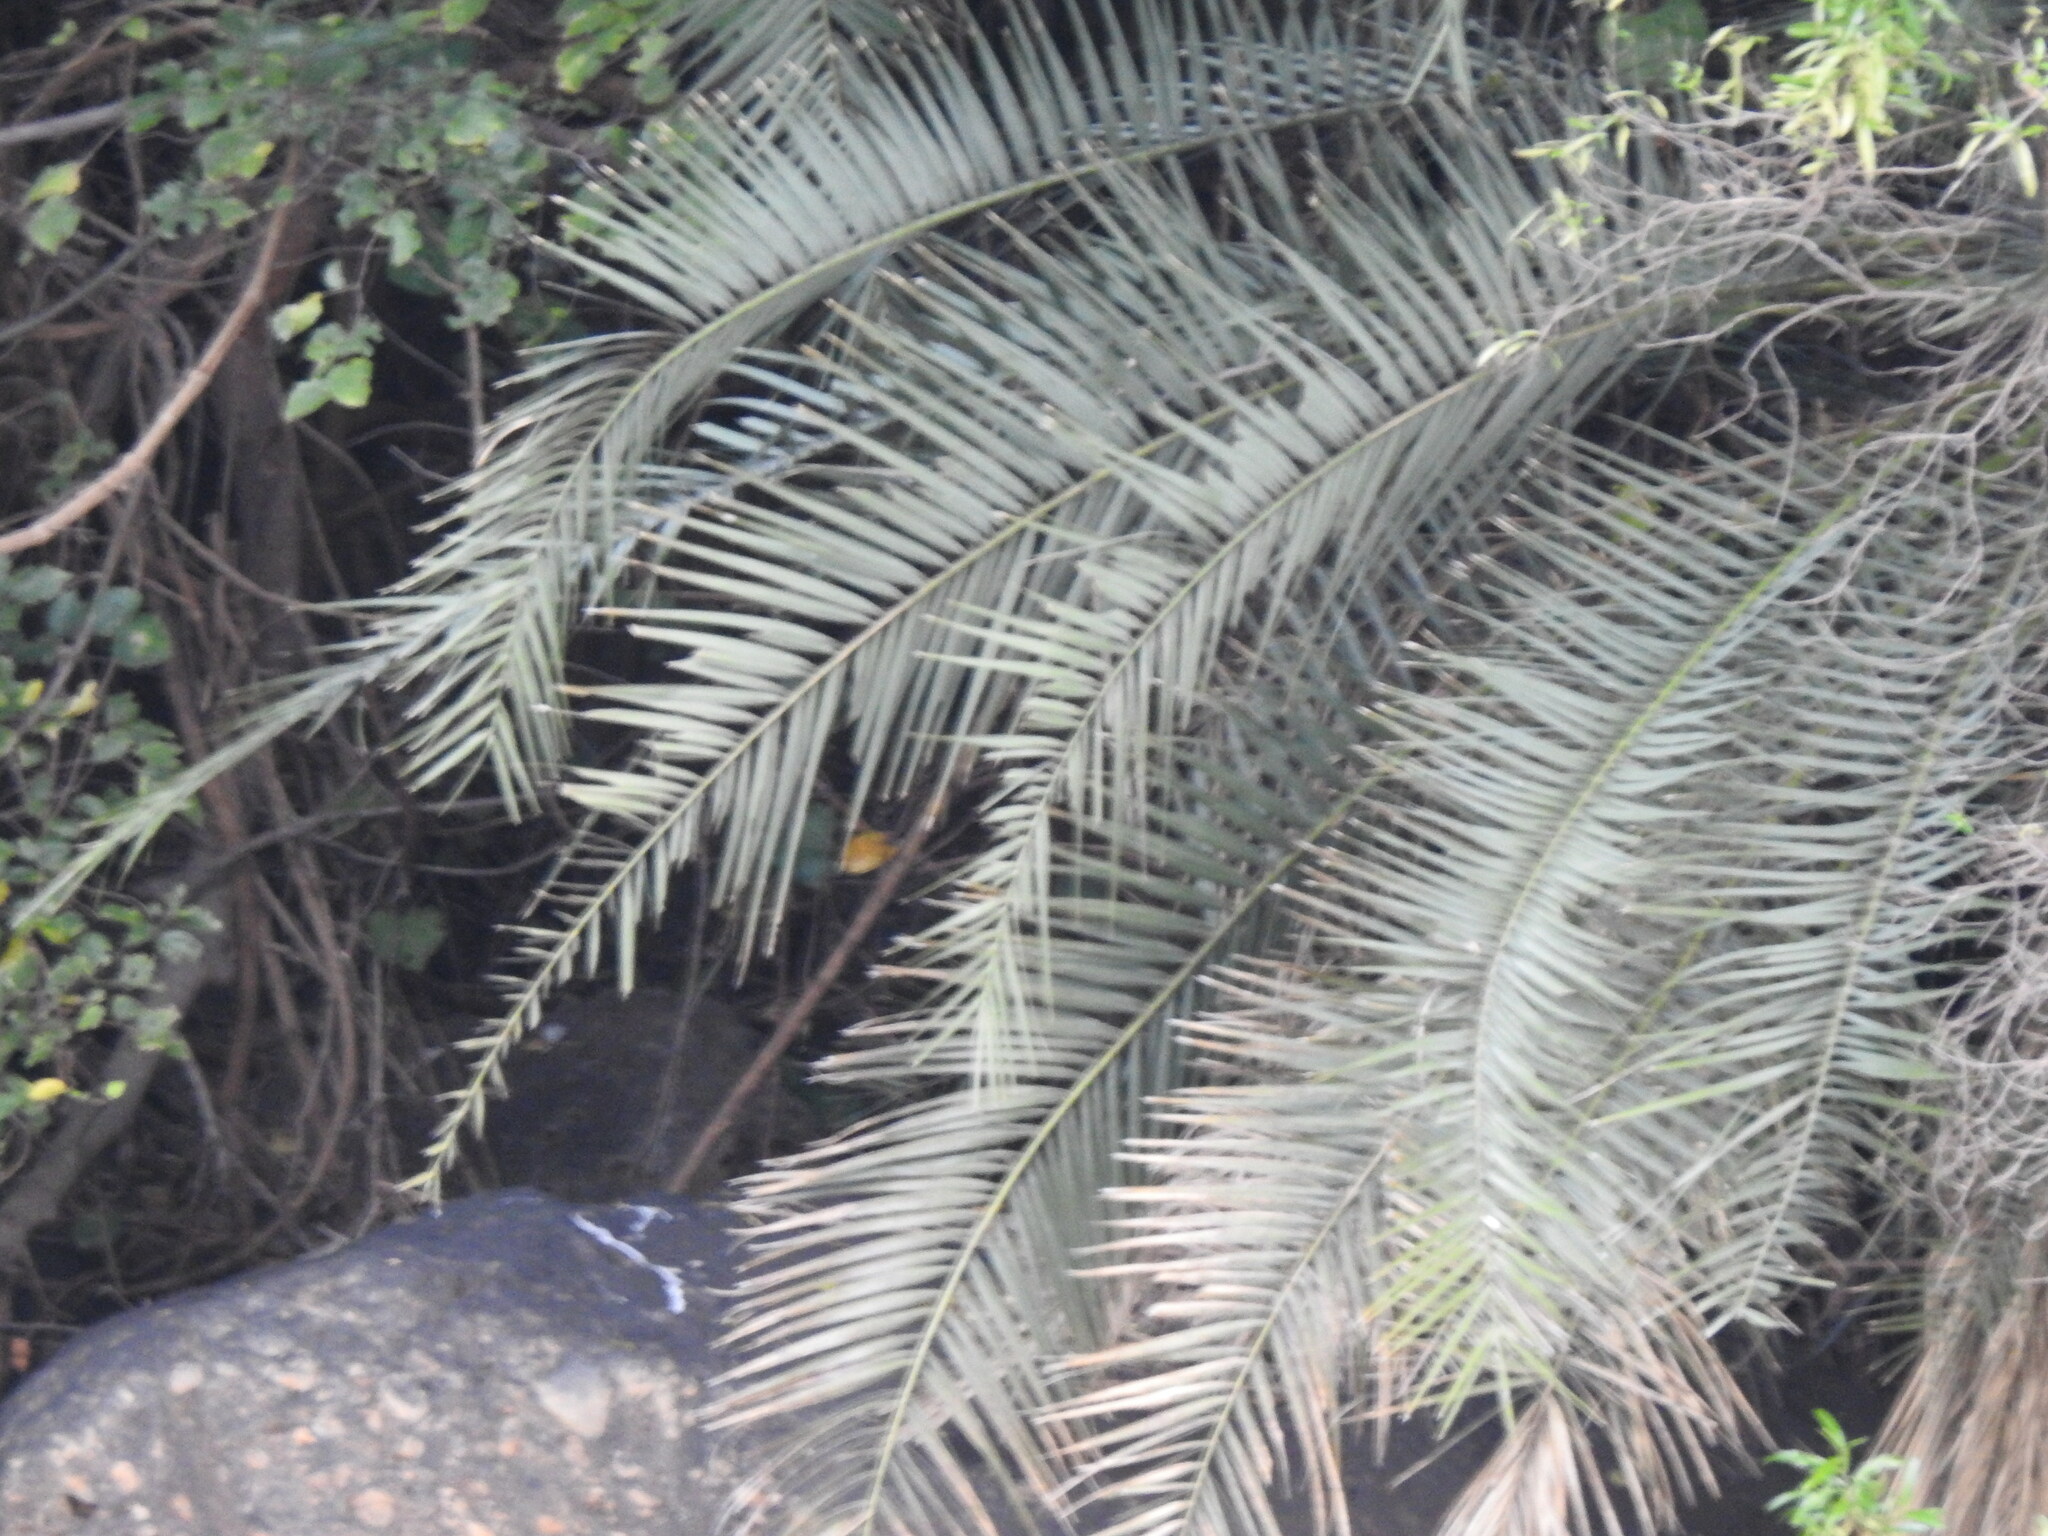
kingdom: Plantae
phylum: Tracheophyta
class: Liliopsida
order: Arecales
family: Arecaceae
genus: Phoenix
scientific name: Phoenix reclinata
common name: Senegal date palm
